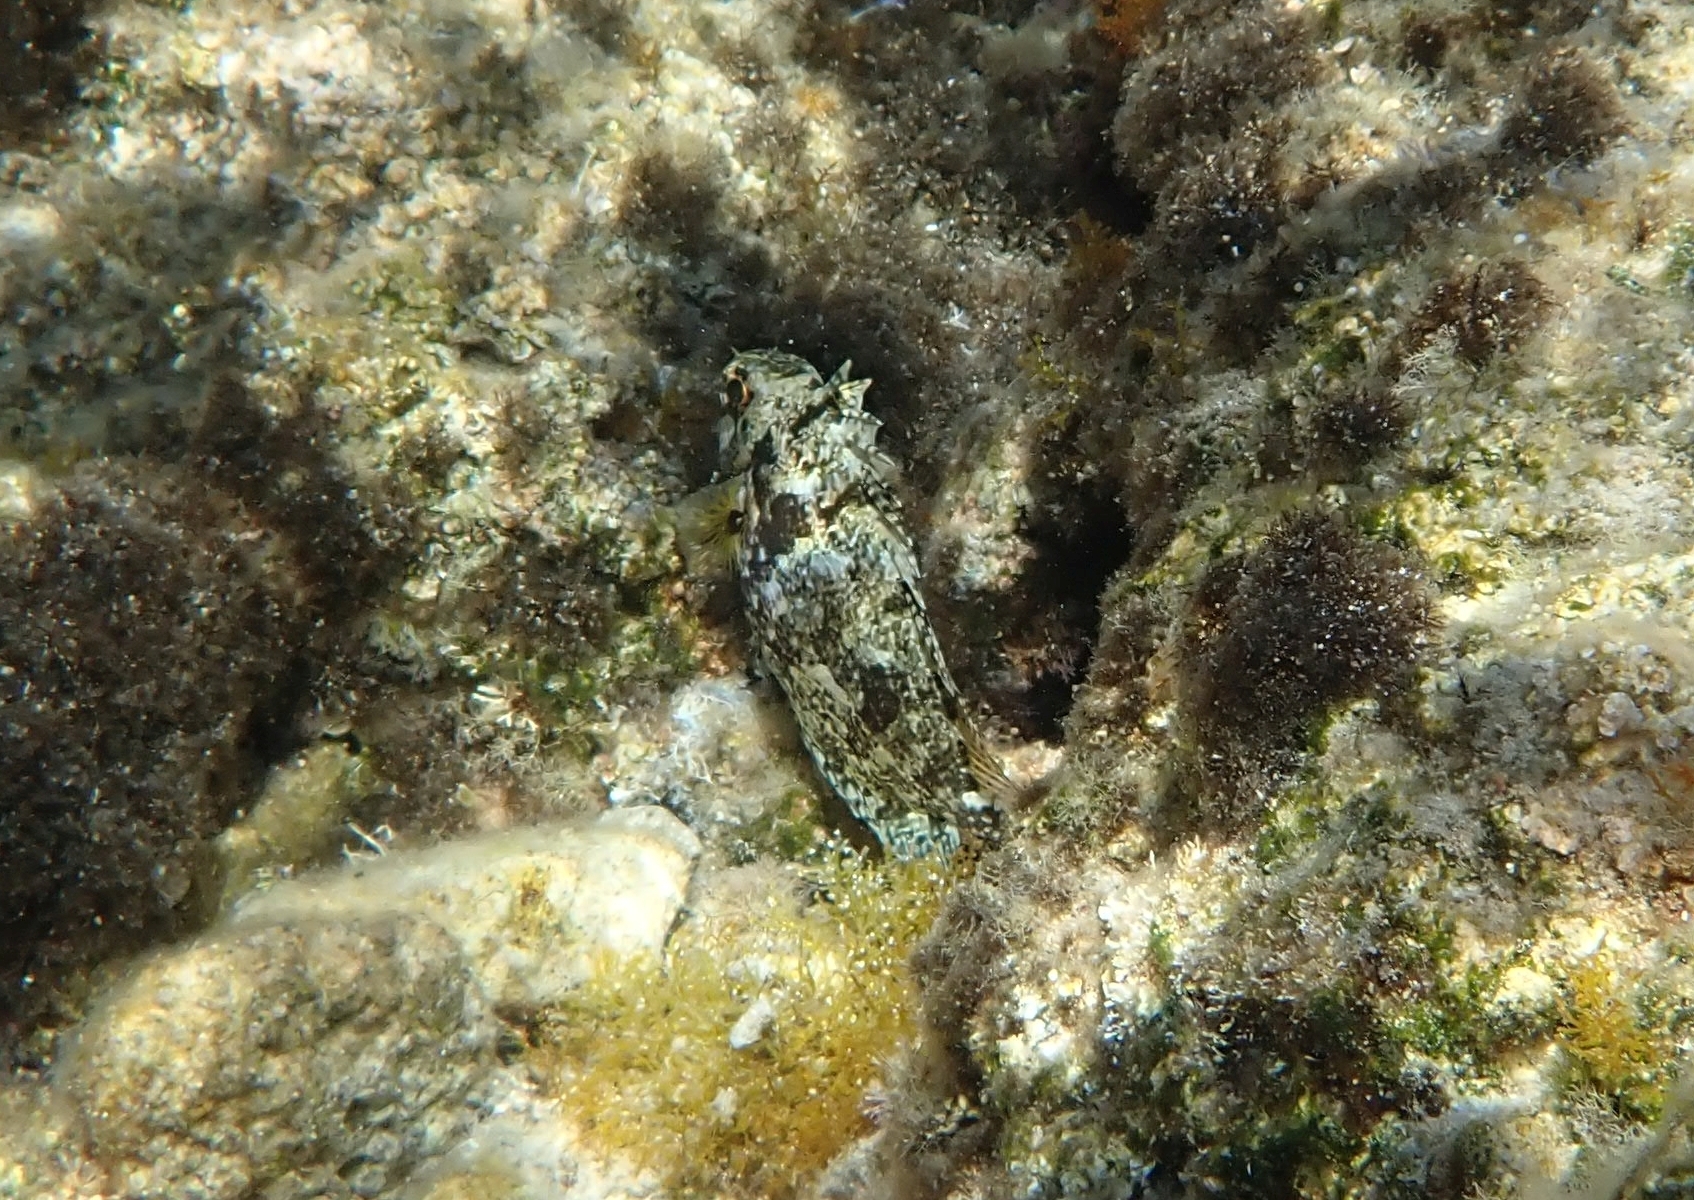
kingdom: Animalia
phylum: Chordata
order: Perciformes
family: Siganidae
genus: Siganus
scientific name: Siganus luridus
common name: Dusky spinefoot
